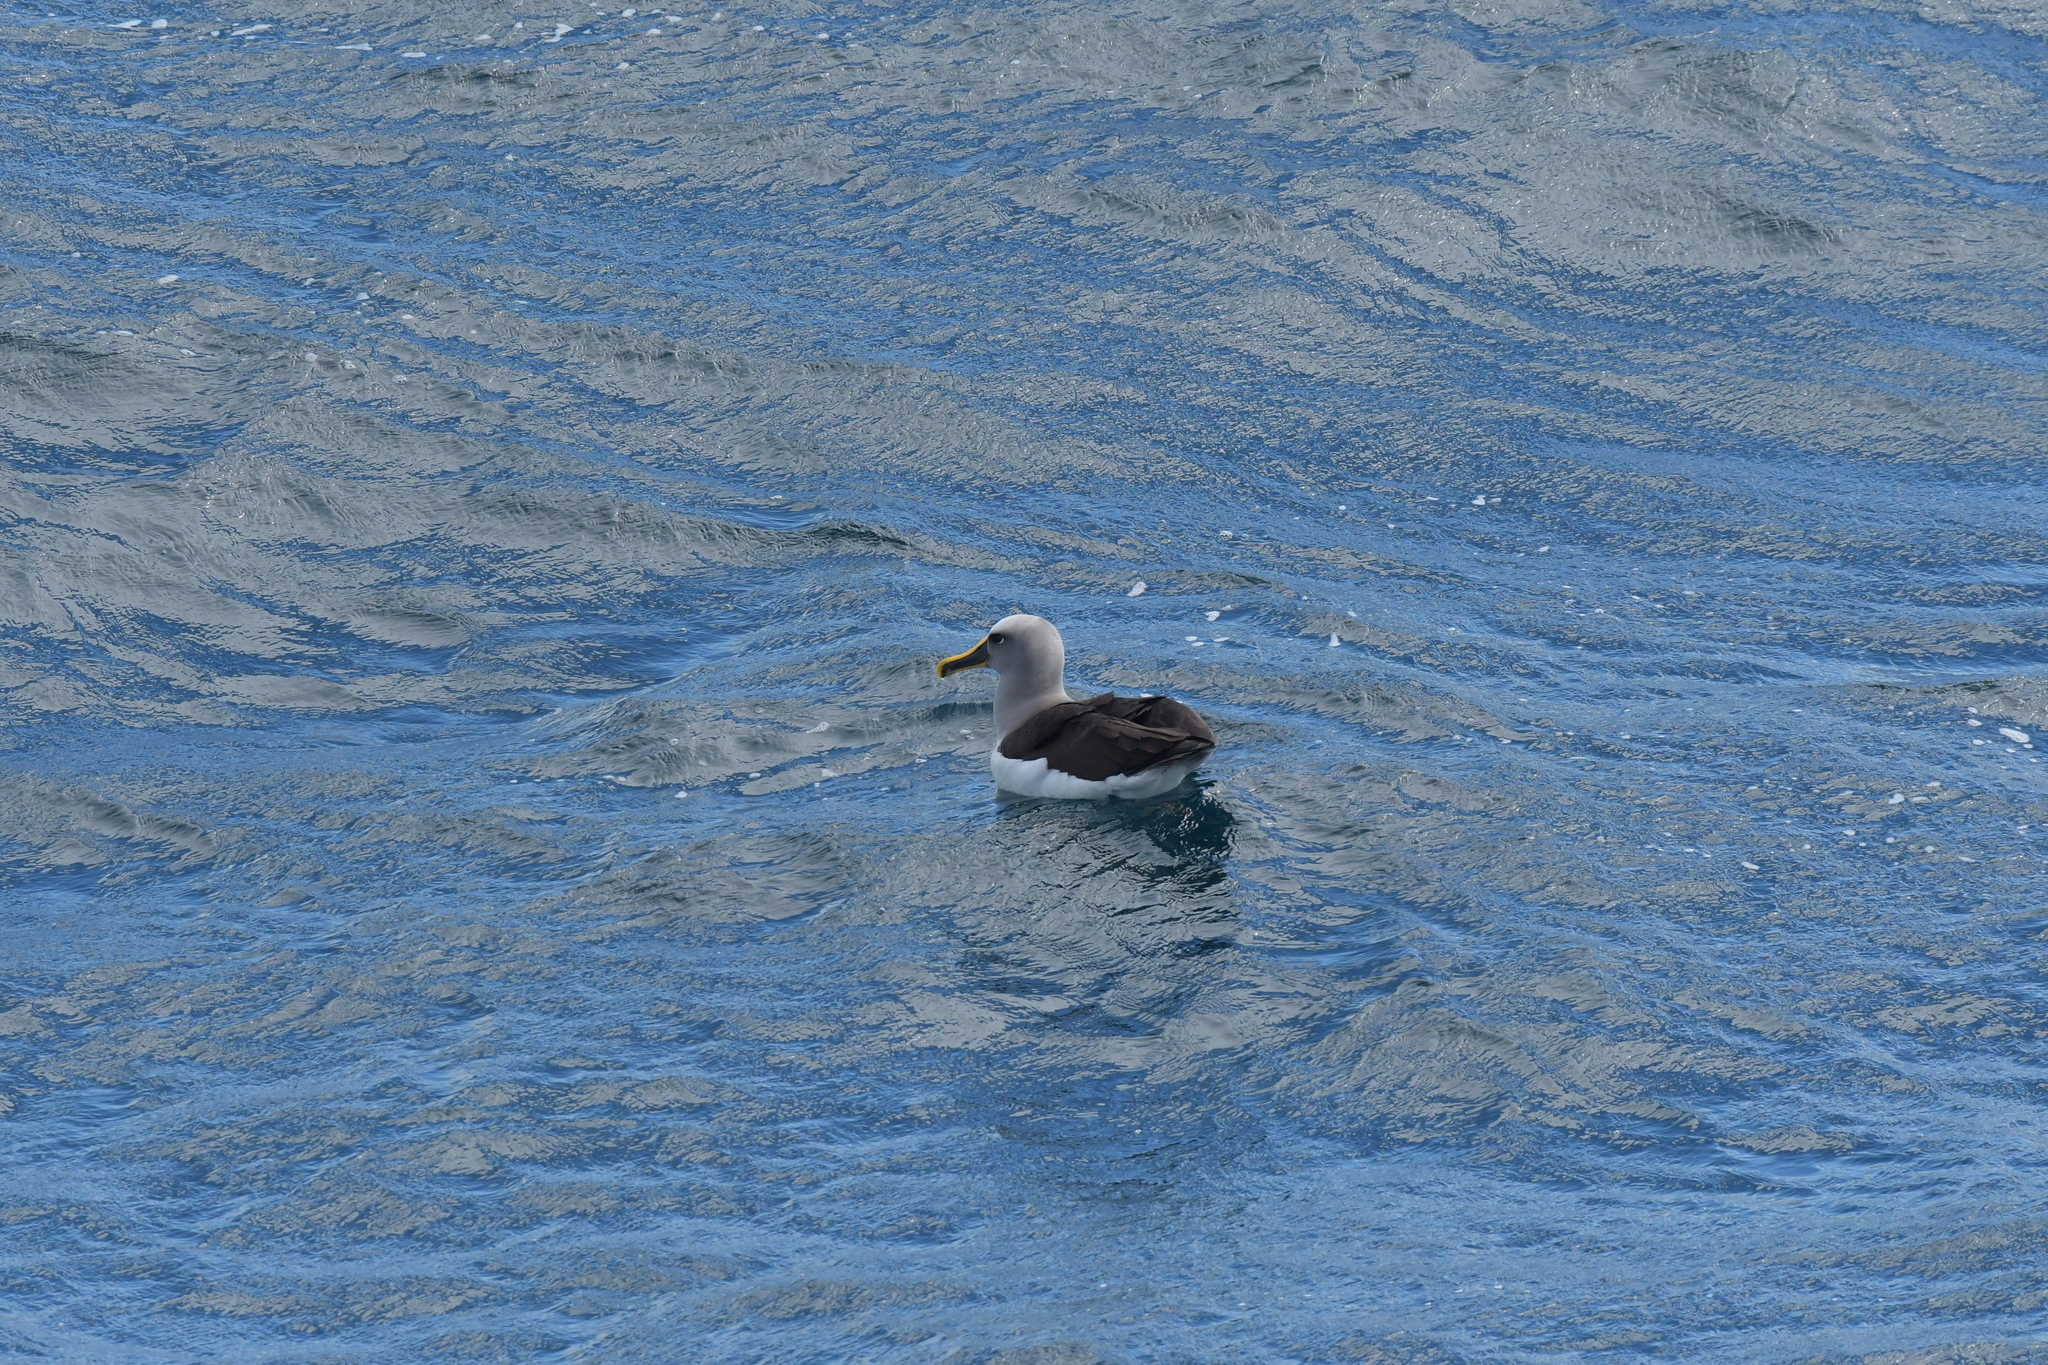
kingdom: Animalia
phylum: Chordata
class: Aves
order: Procellariiformes
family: Diomedeidae
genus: Thalassarche
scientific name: Thalassarche bulleri
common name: Buller's albatross
